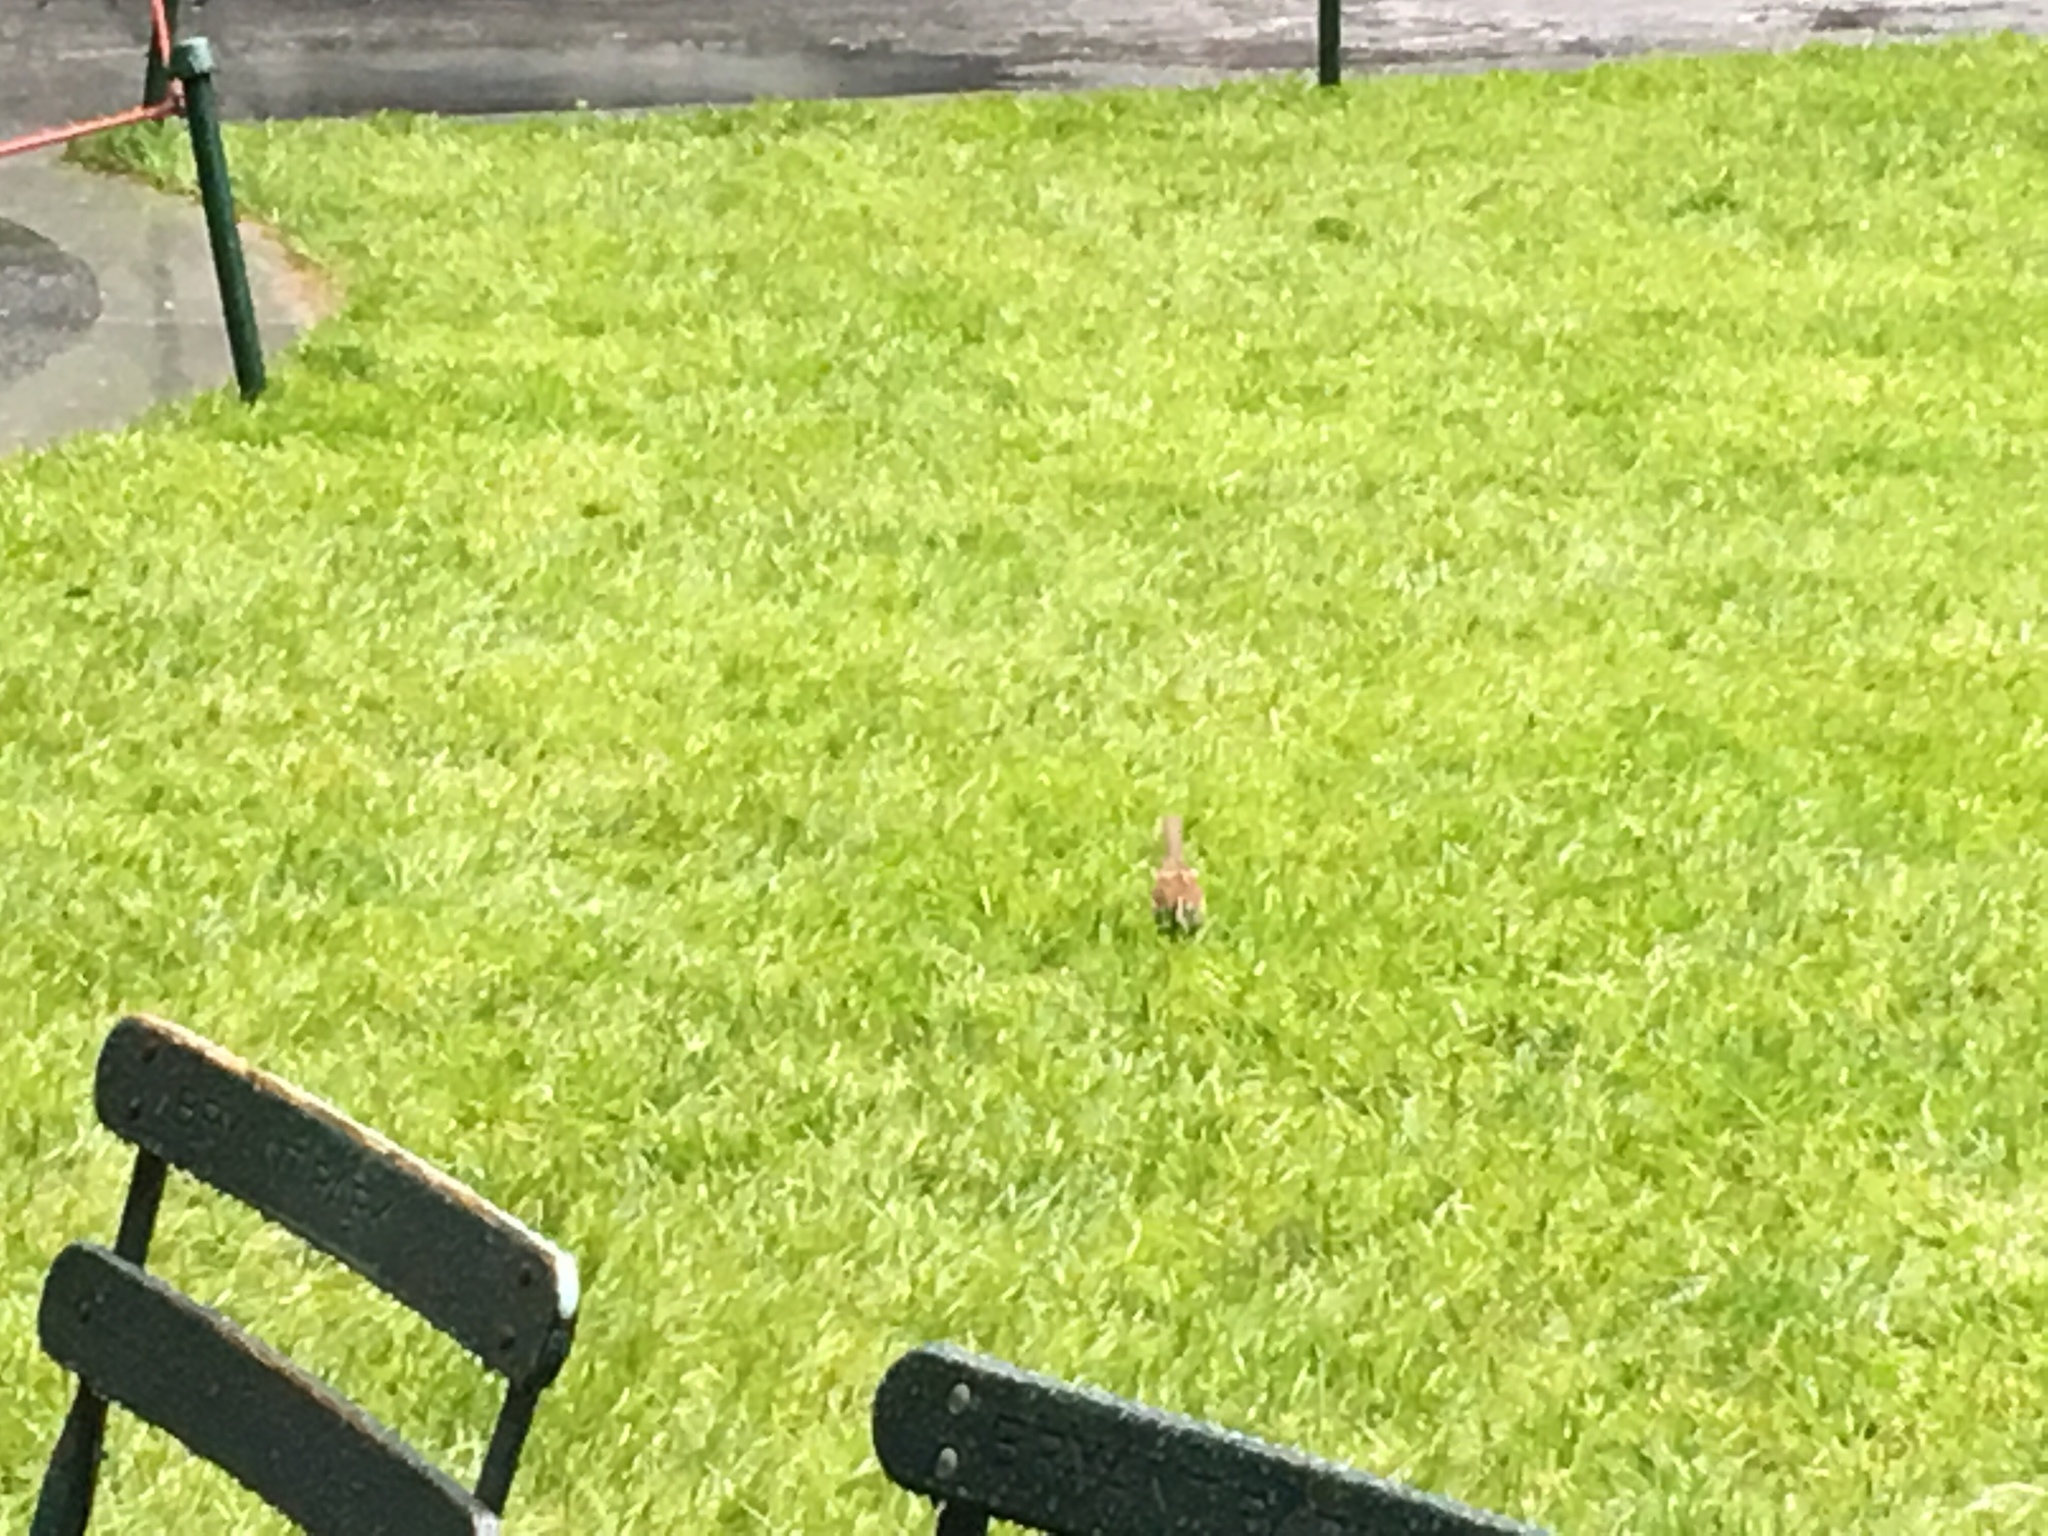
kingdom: Animalia
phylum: Chordata
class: Aves
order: Passeriformes
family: Passerellidae
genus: Zonotrichia
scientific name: Zonotrichia albicollis
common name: White-throated sparrow
